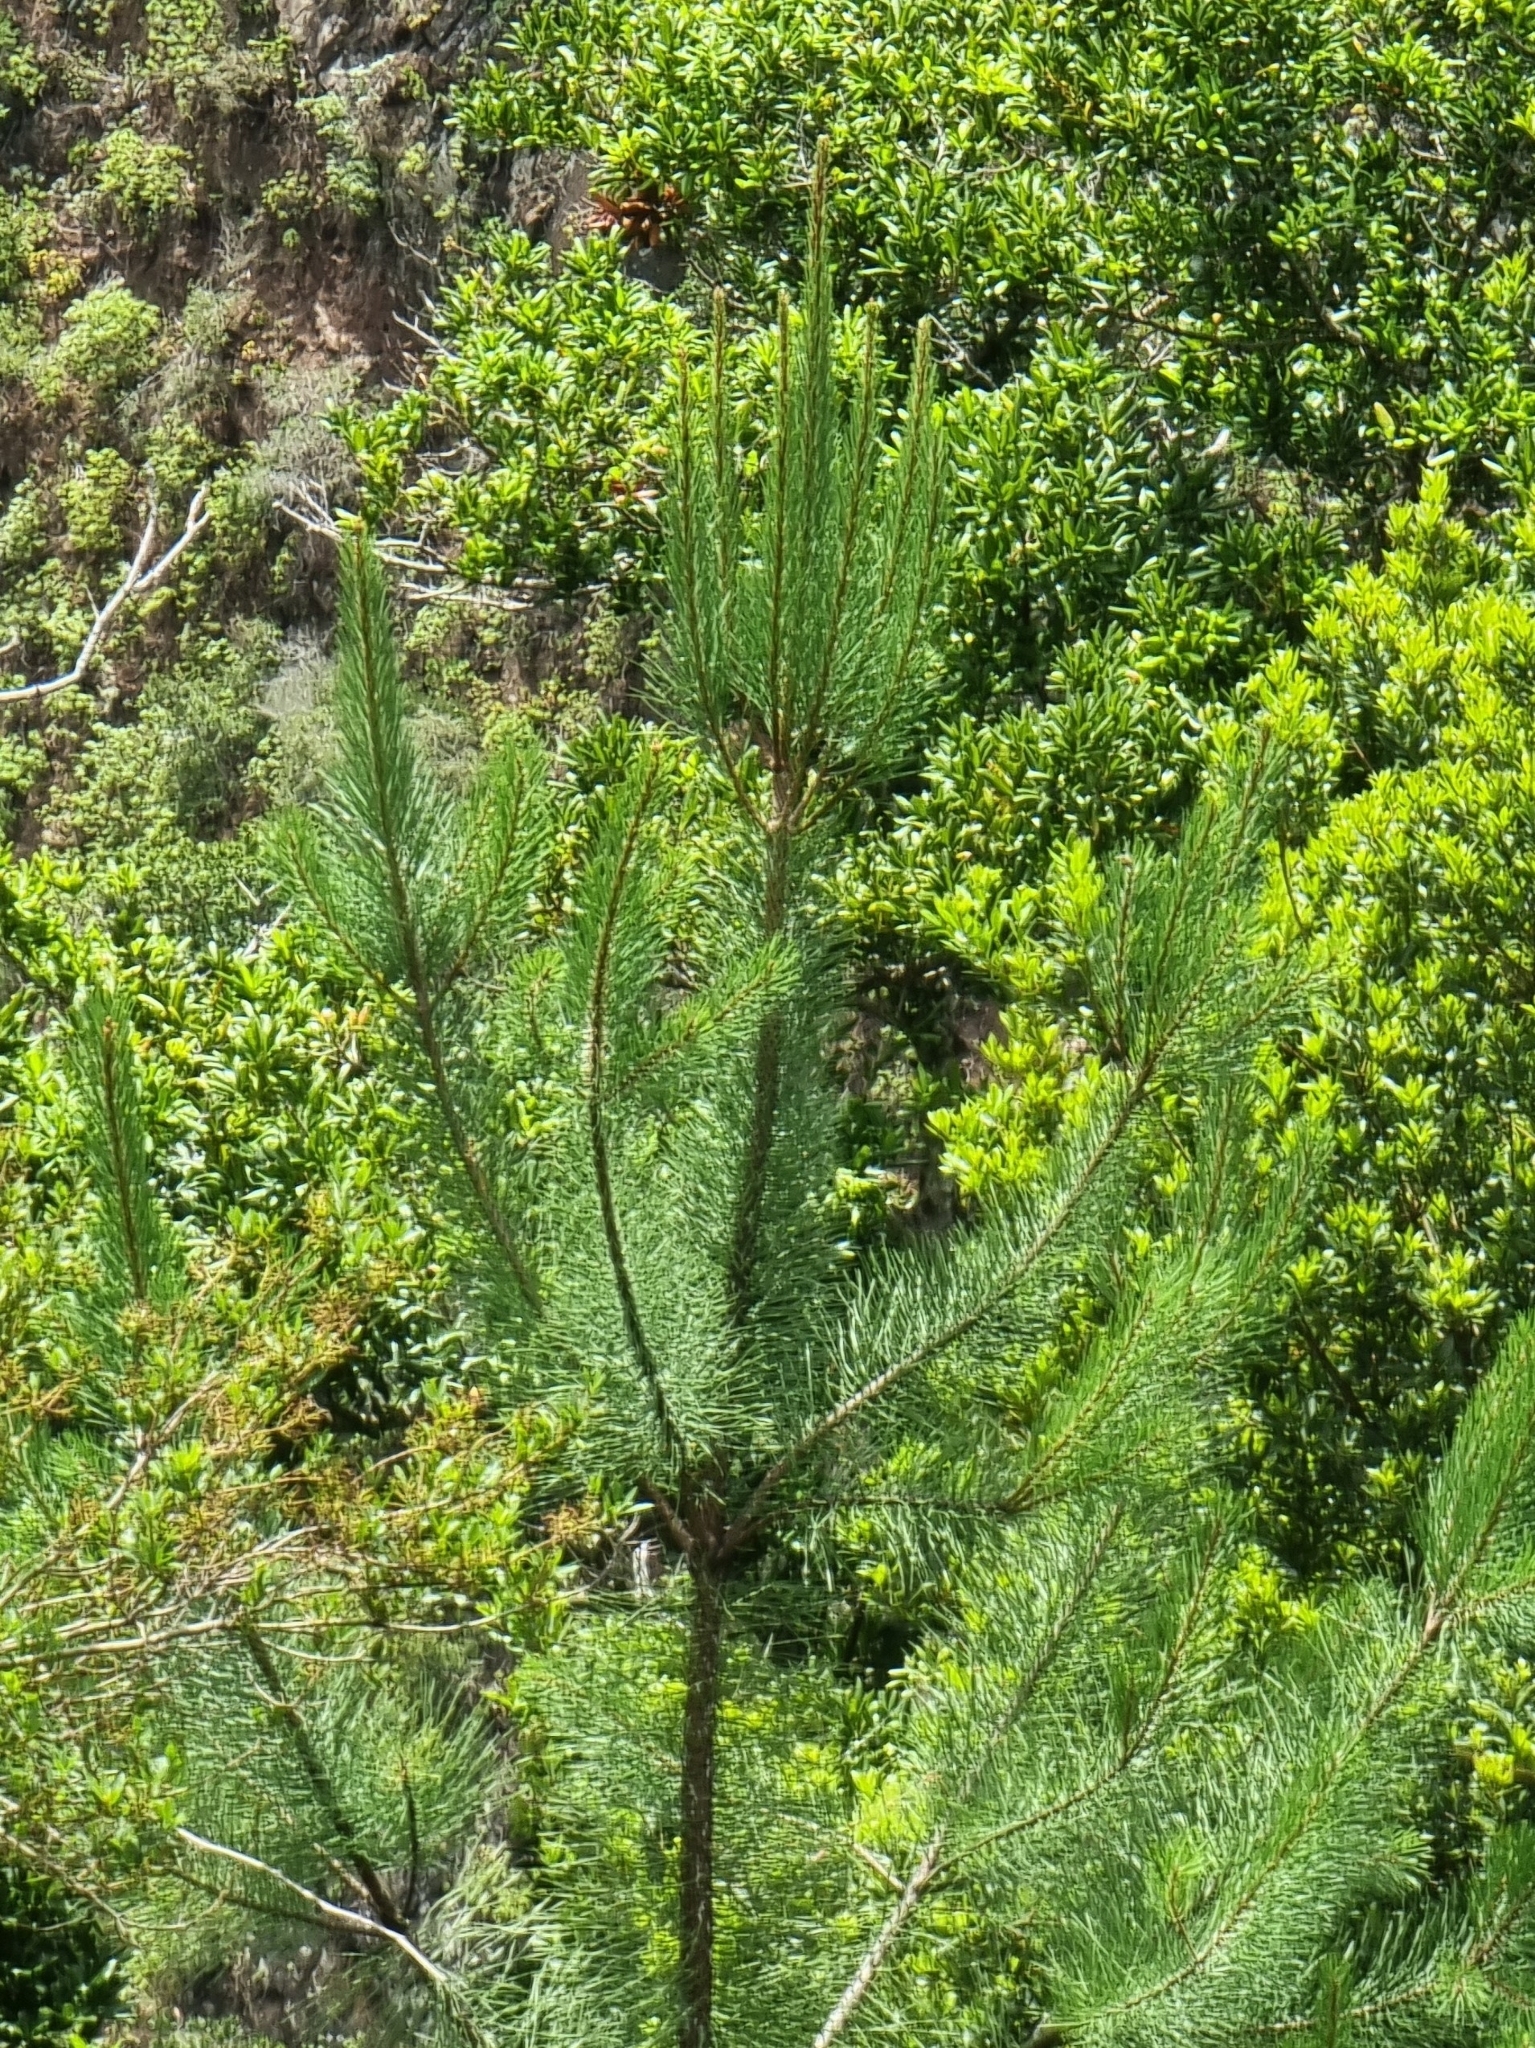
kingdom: Plantae
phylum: Tracheophyta
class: Pinopsida
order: Pinales
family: Pinaceae
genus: Pinus
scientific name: Pinus pinaster
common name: Maritime pine
